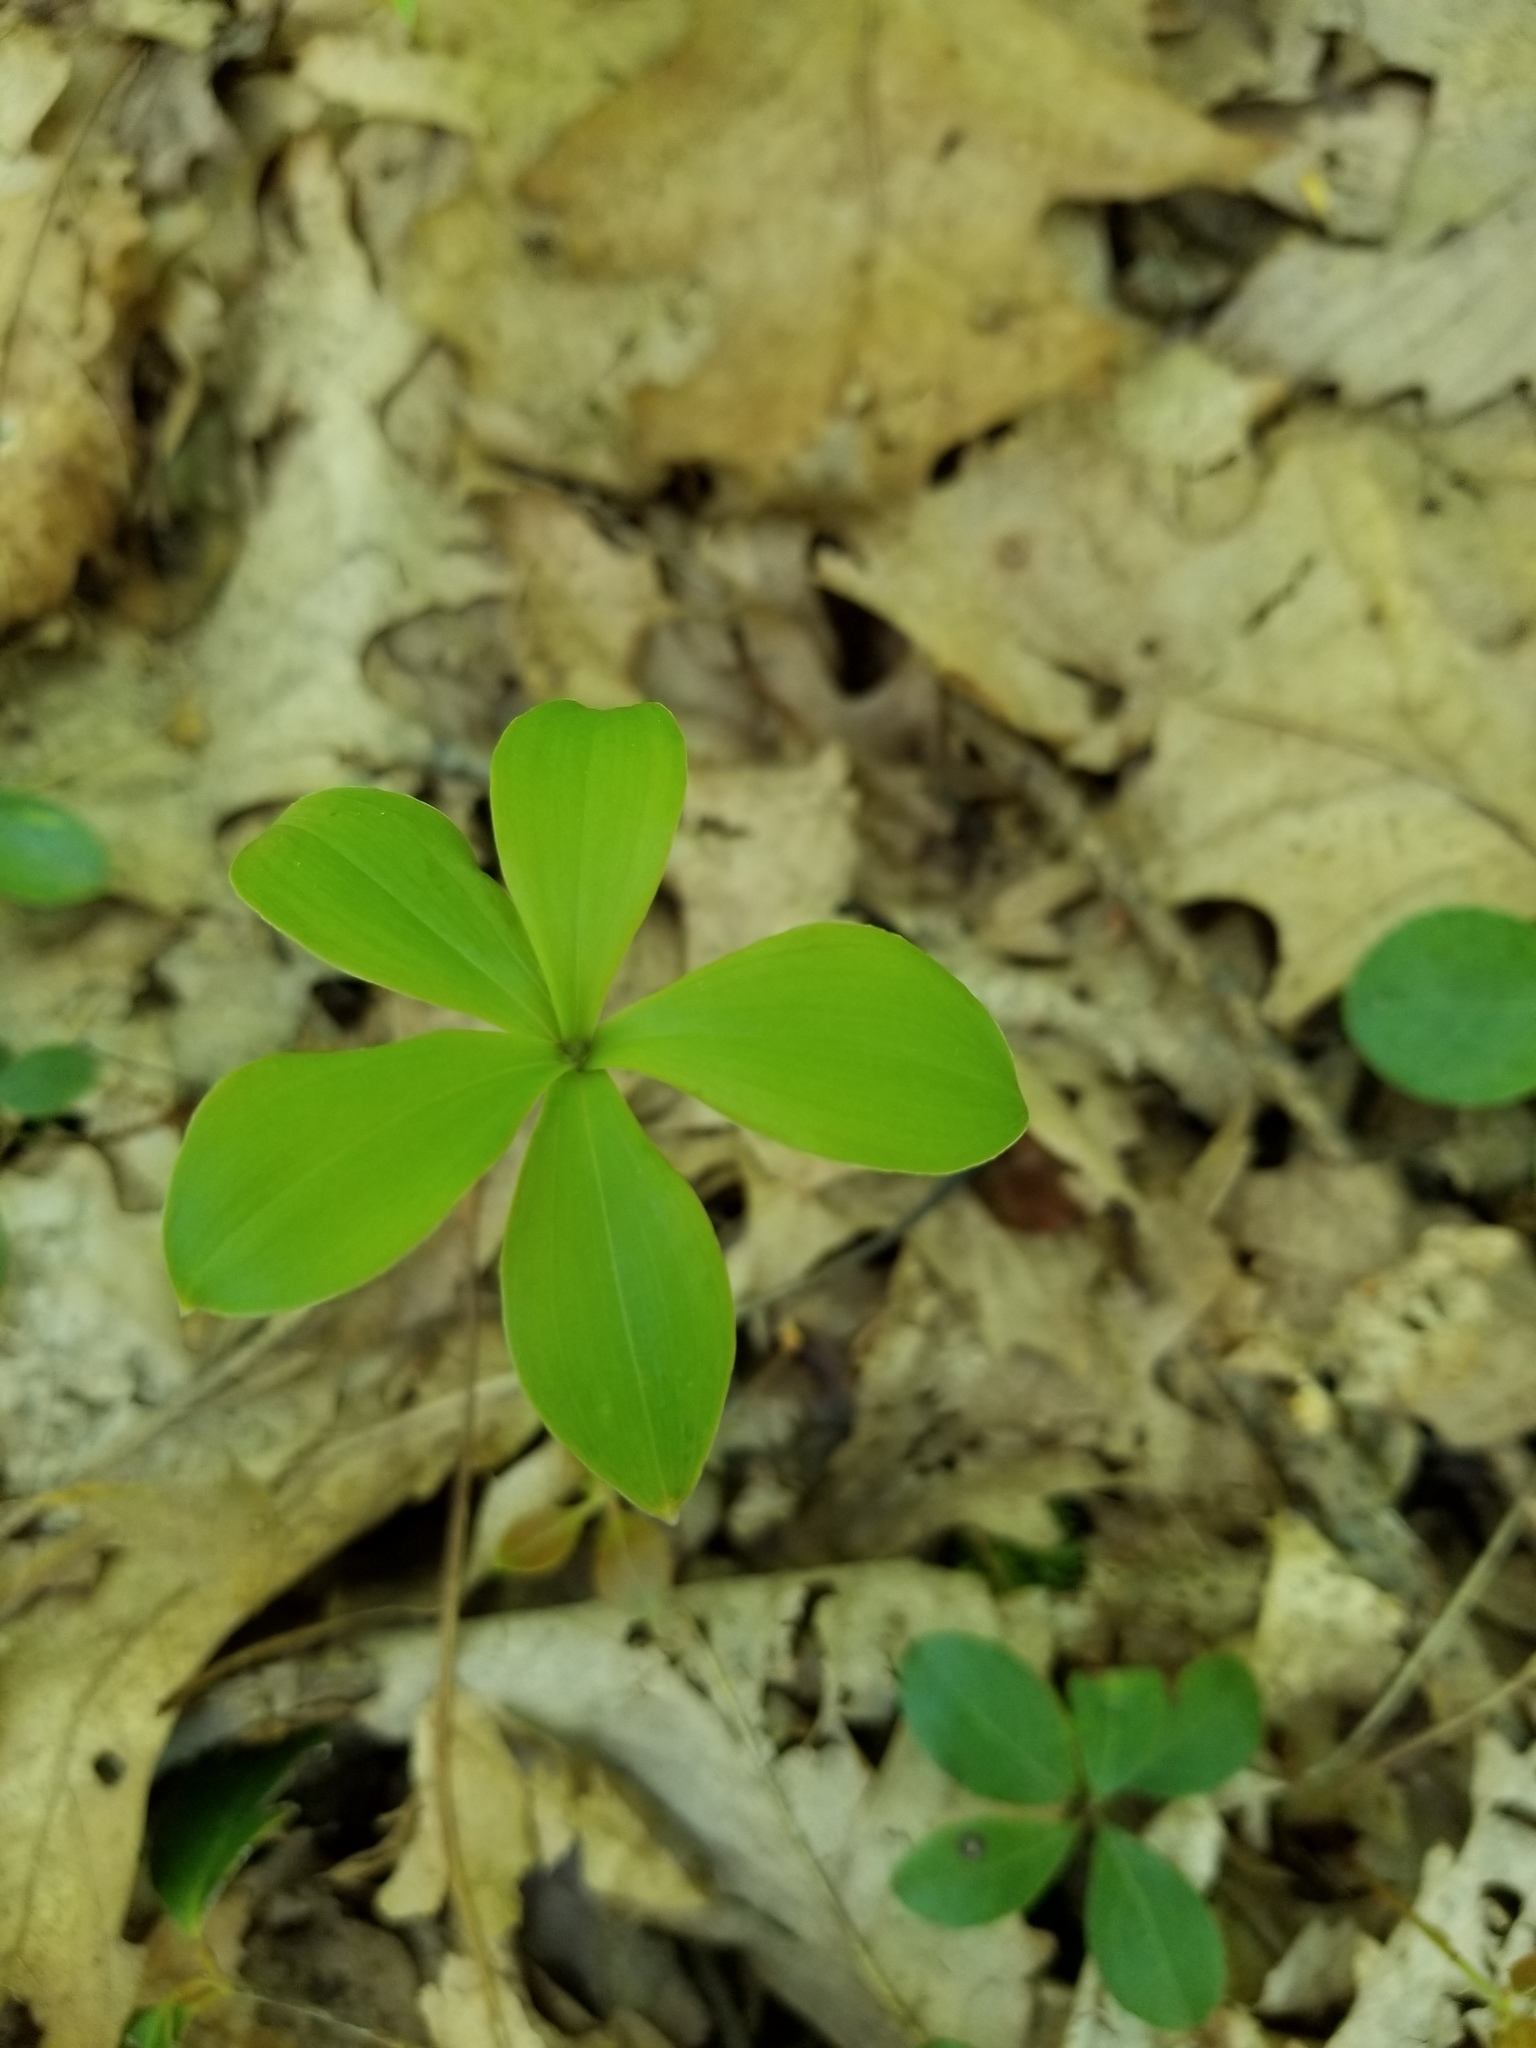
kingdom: Plantae
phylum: Tracheophyta
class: Liliopsida
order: Asparagales
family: Orchidaceae
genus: Isotria
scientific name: Isotria verticillata
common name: Large whorled pogonia
